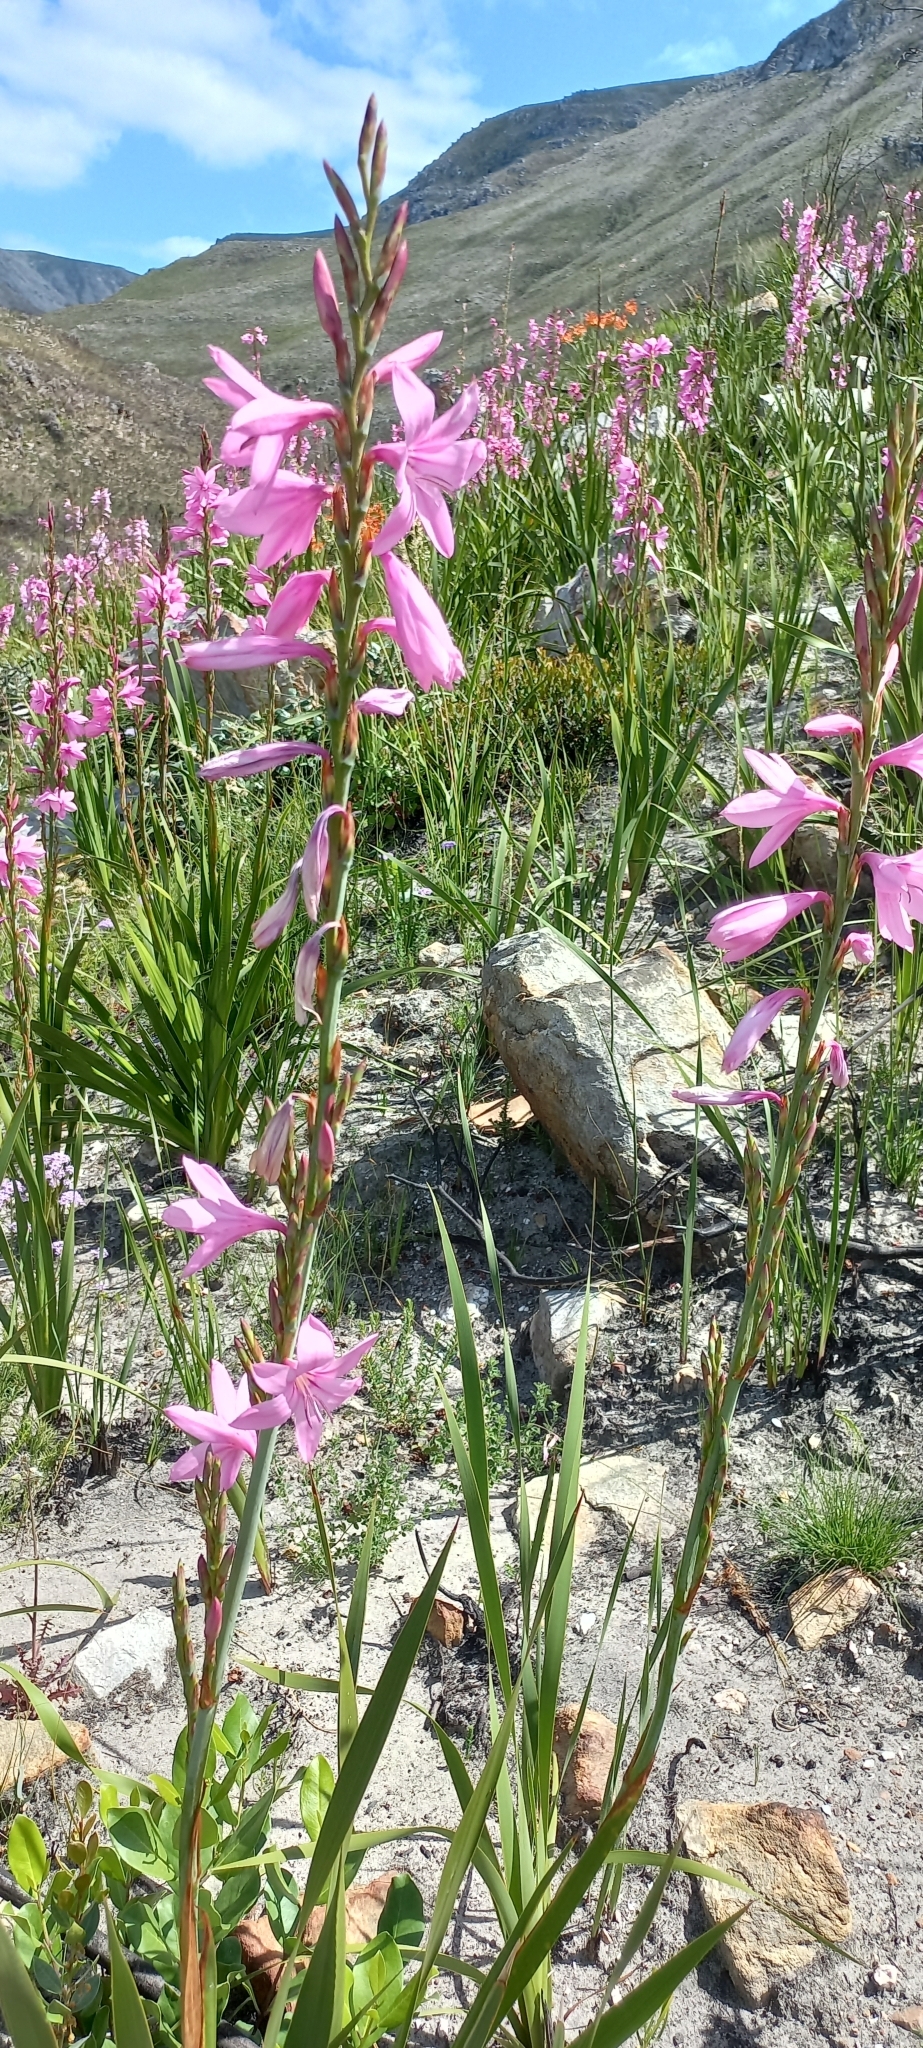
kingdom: Plantae
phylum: Tracheophyta
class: Liliopsida
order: Asparagales
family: Iridaceae
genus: Watsonia
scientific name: Watsonia borbonica
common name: Bugle-lily
